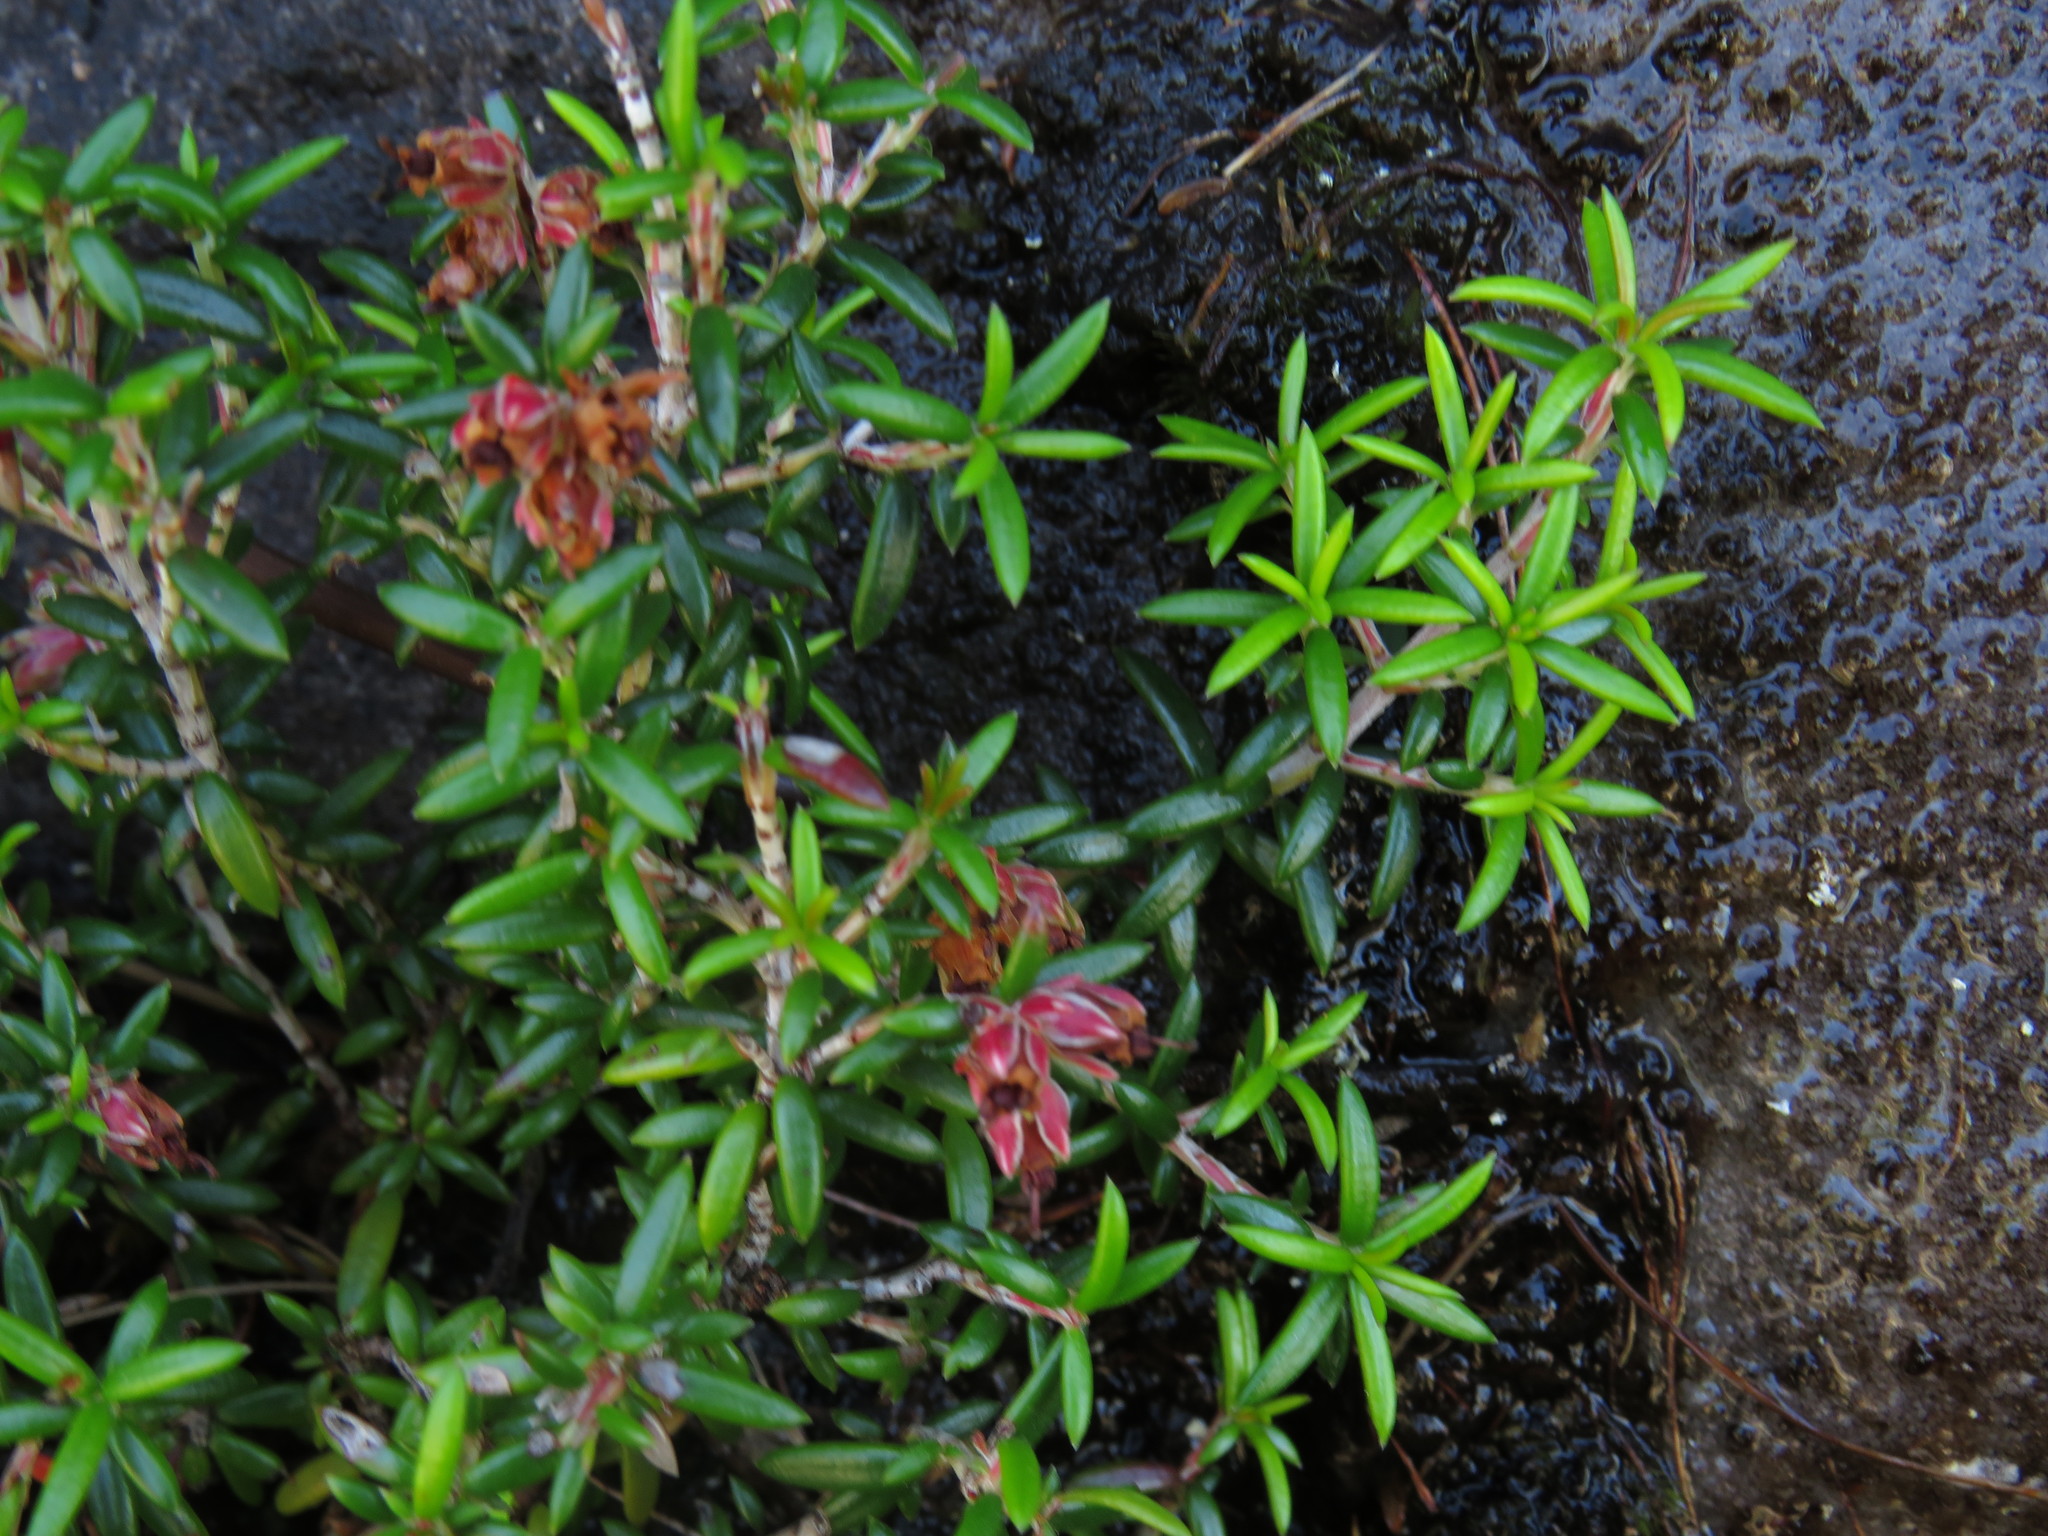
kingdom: Plantae
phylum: Tracheophyta
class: Magnoliopsida
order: Ericales
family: Ericaceae
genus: Erica
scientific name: Erica petiolaris
